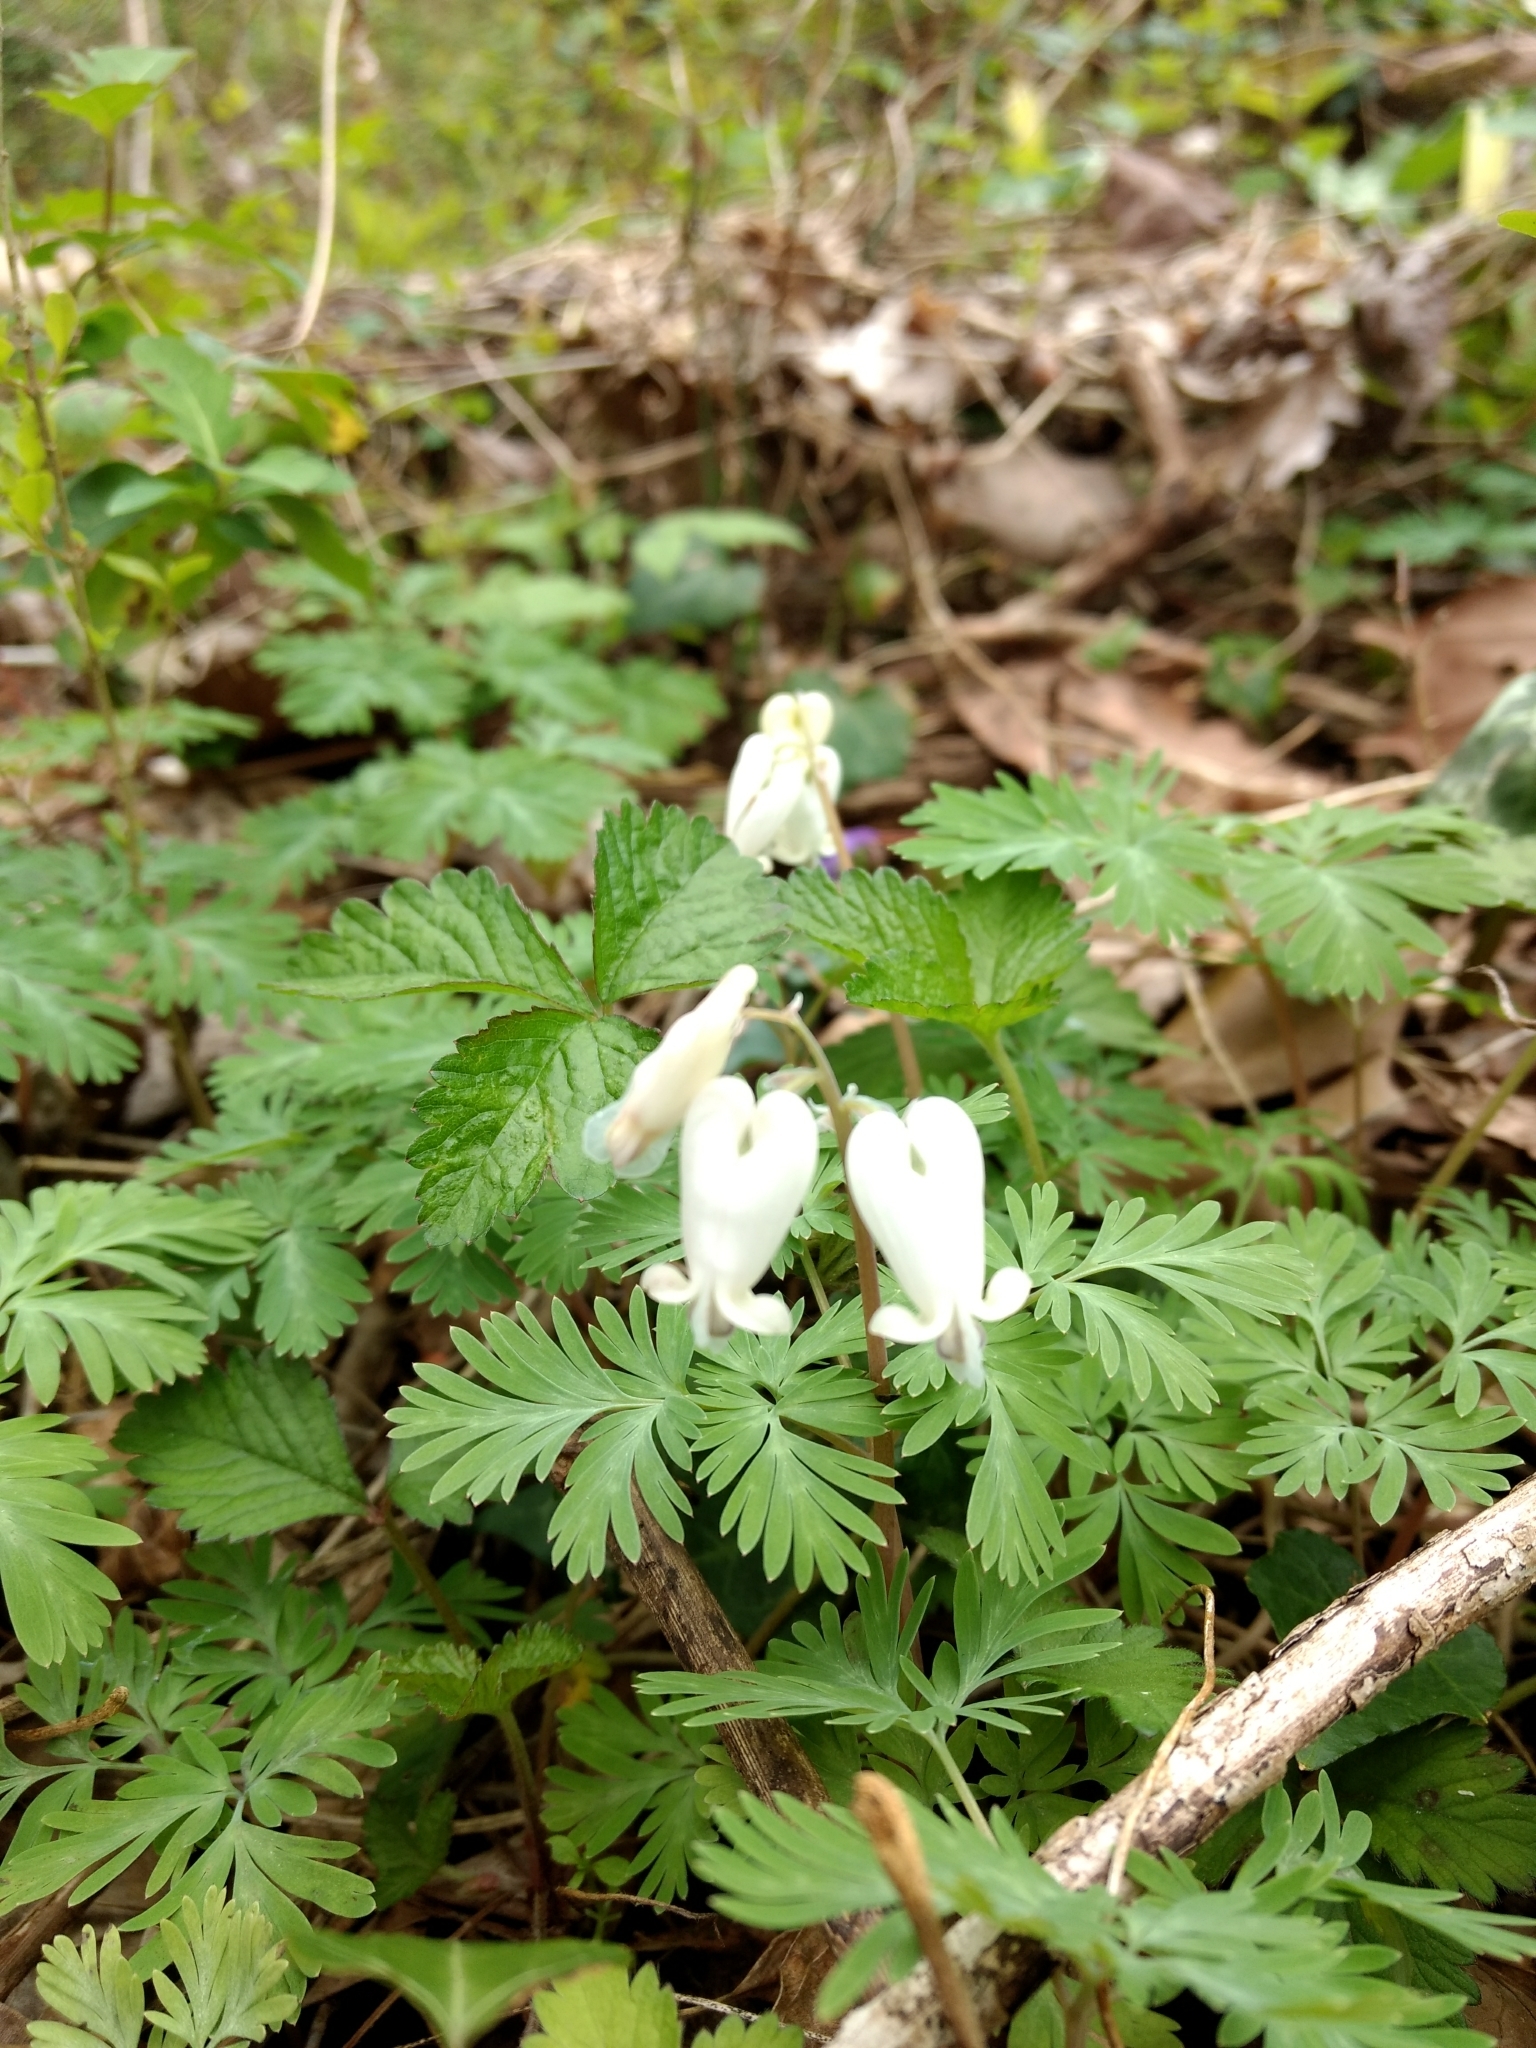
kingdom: Plantae
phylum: Tracheophyta
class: Magnoliopsida
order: Ranunculales
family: Papaveraceae
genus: Dicentra
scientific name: Dicentra canadensis
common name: Squirrel-corn
